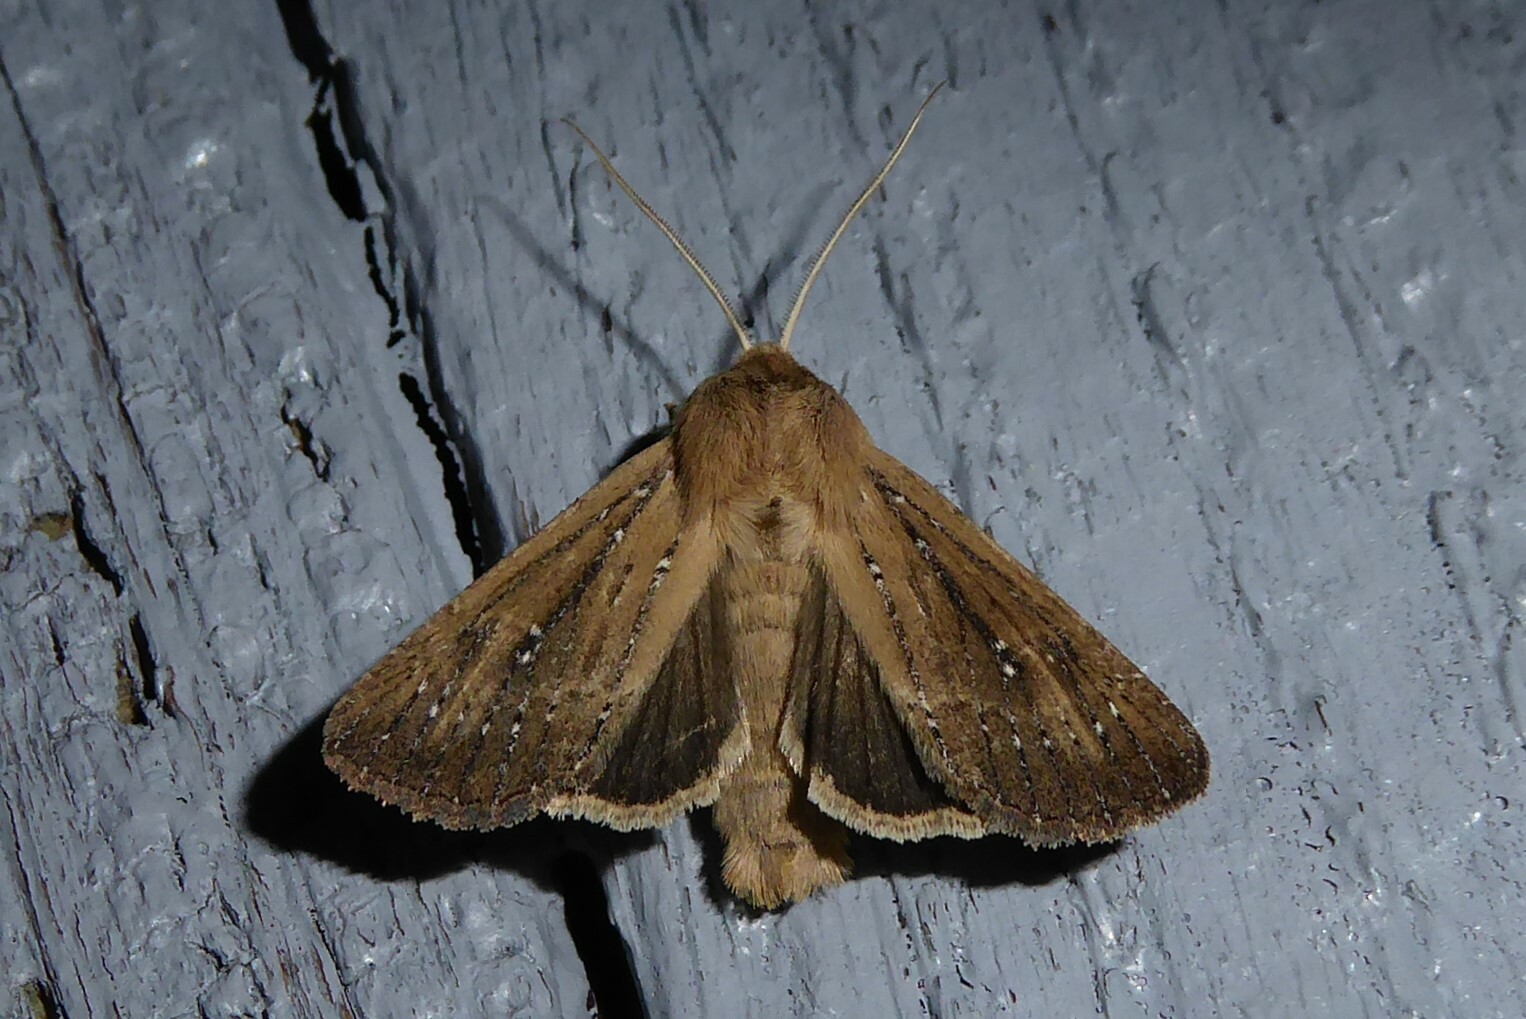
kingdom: Animalia
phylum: Arthropoda
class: Insecta
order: Lepidoptera
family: Noctuidae
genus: Ichneutica
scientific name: Ichneutica
